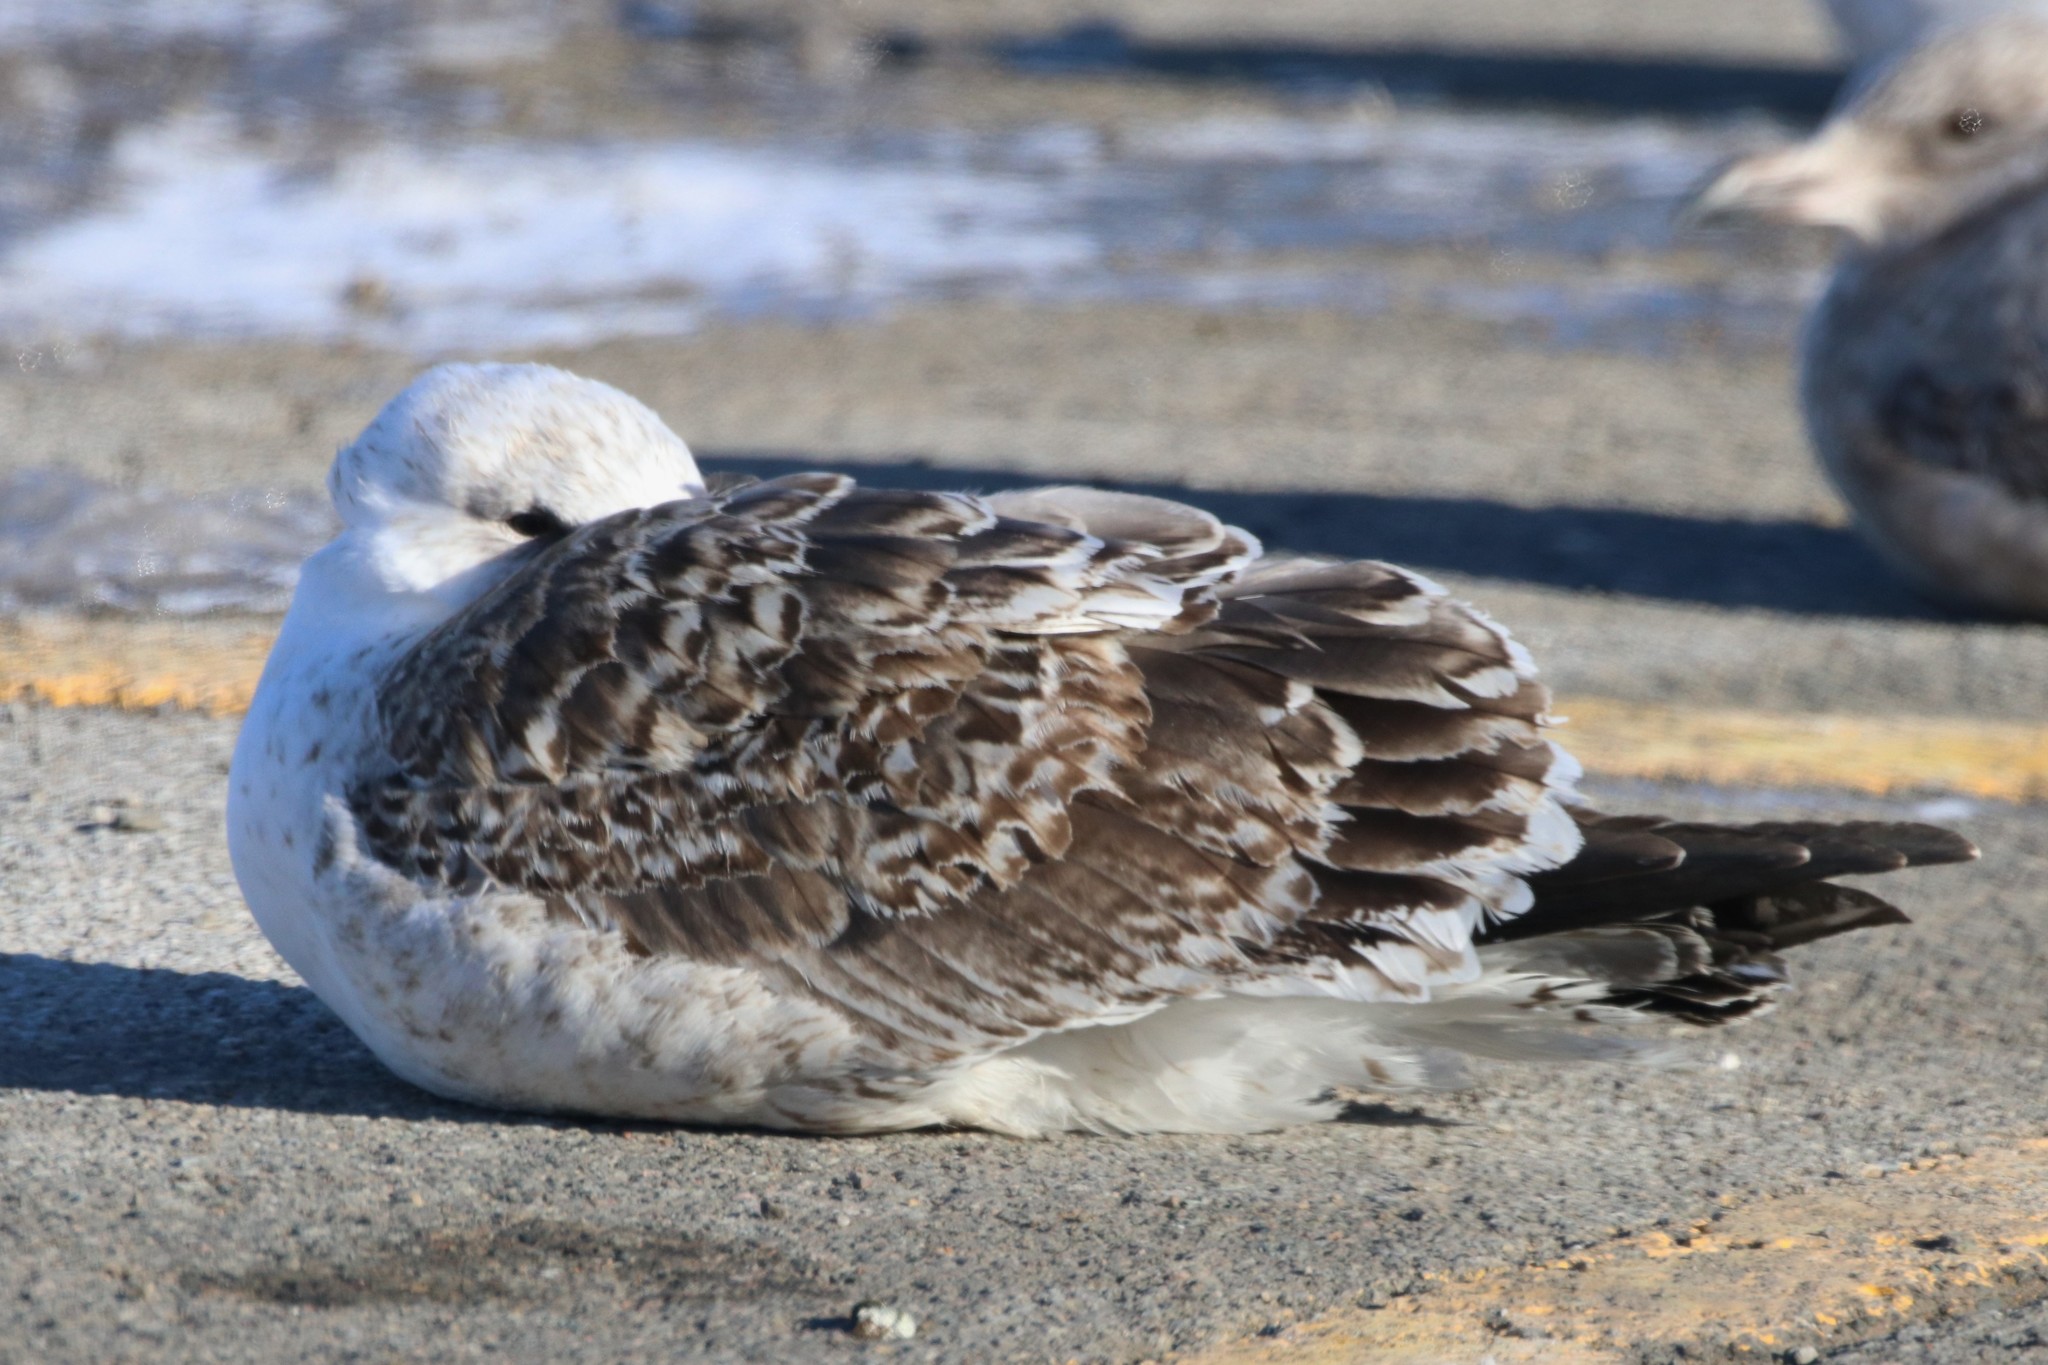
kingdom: Animalia
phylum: Chordata
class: Aves
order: Charadriiformes
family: Laridae
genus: Larus
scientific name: Larus marinus
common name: Great black-backed gull
